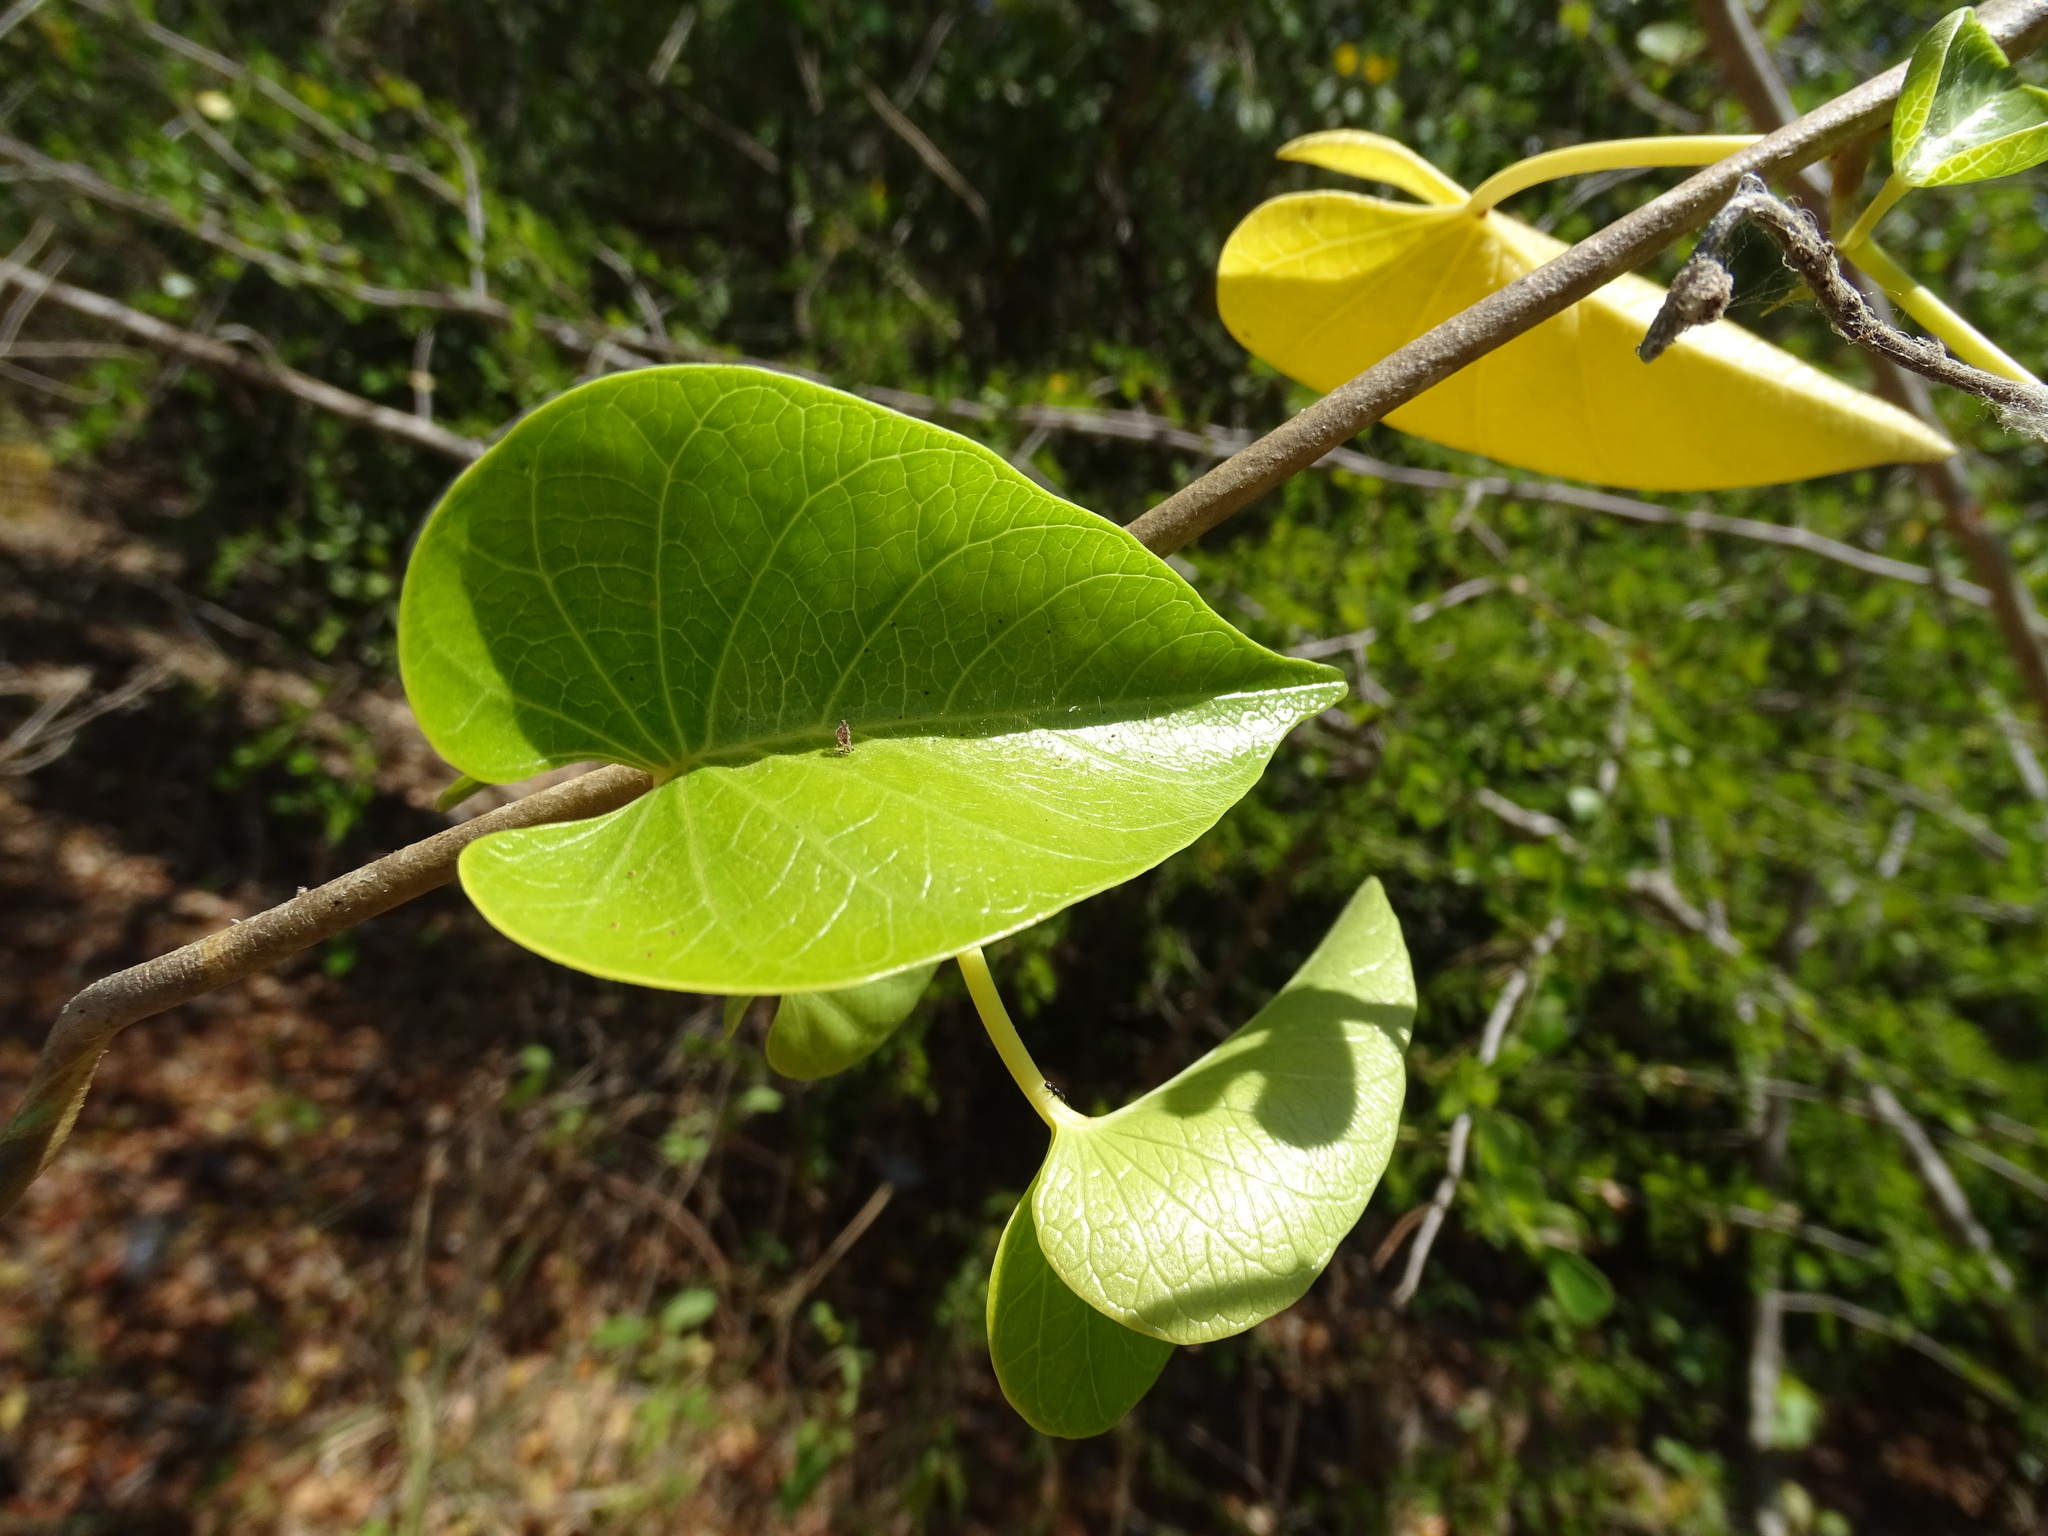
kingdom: Plantae
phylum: Tracheophyta
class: Magnoliopsida
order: Solanales
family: Convolvulaceae
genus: Ipomoea
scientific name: Ipomoea violacea
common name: Beach moonflower
